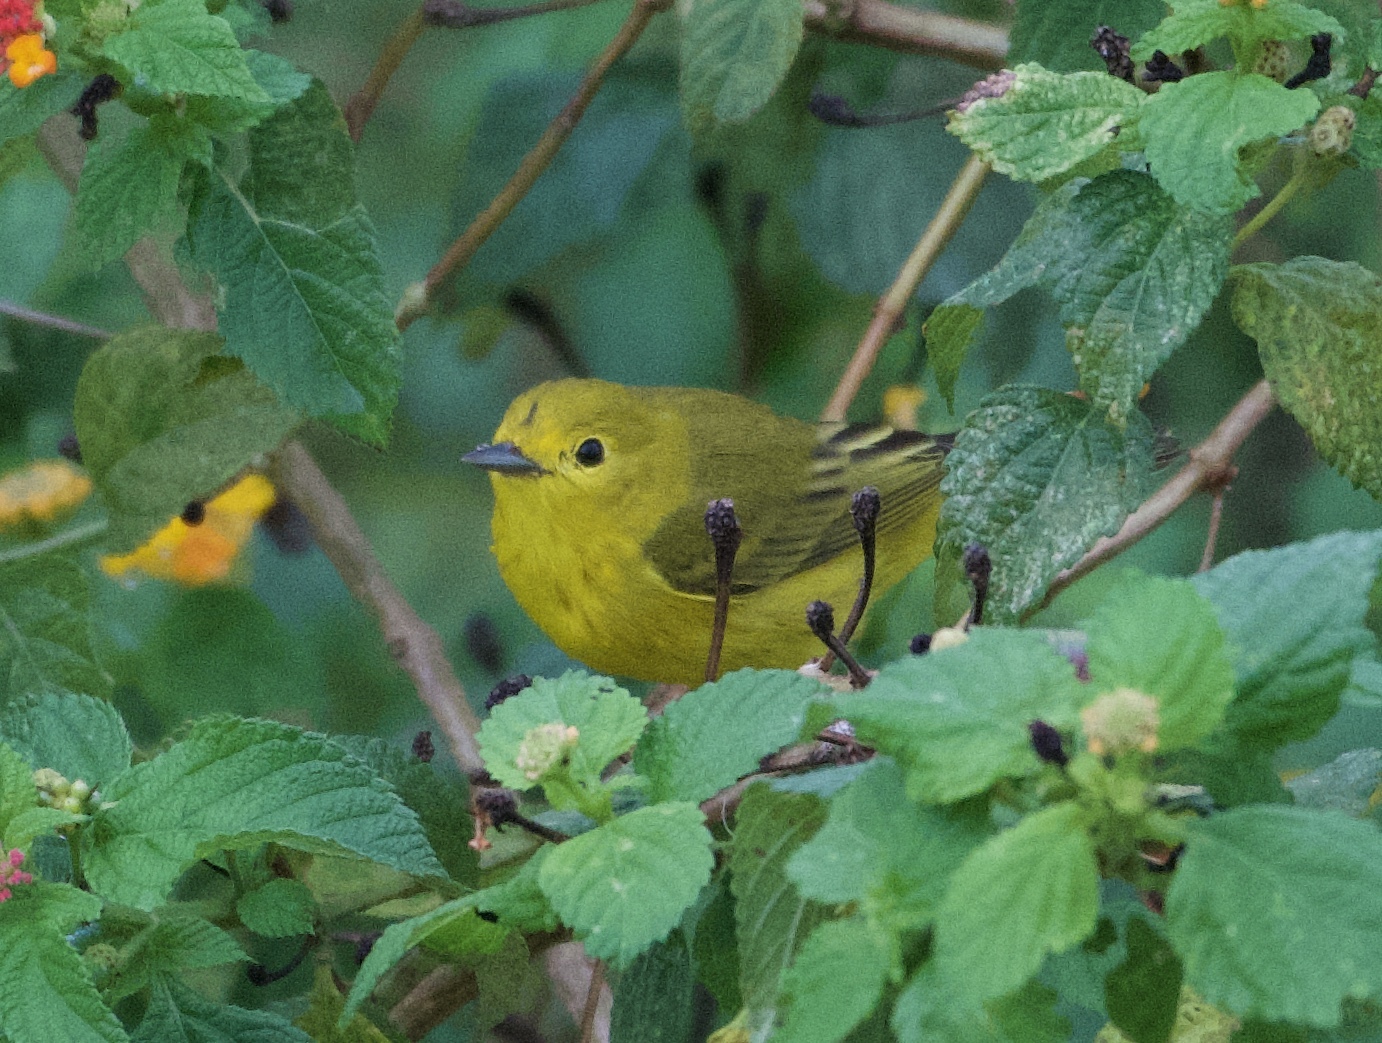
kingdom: Animalia
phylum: Chordata
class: Aves
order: Passeriformes
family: Parulidae
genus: Setophaga
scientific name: Setophaga petechia
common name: Yellow warbler
